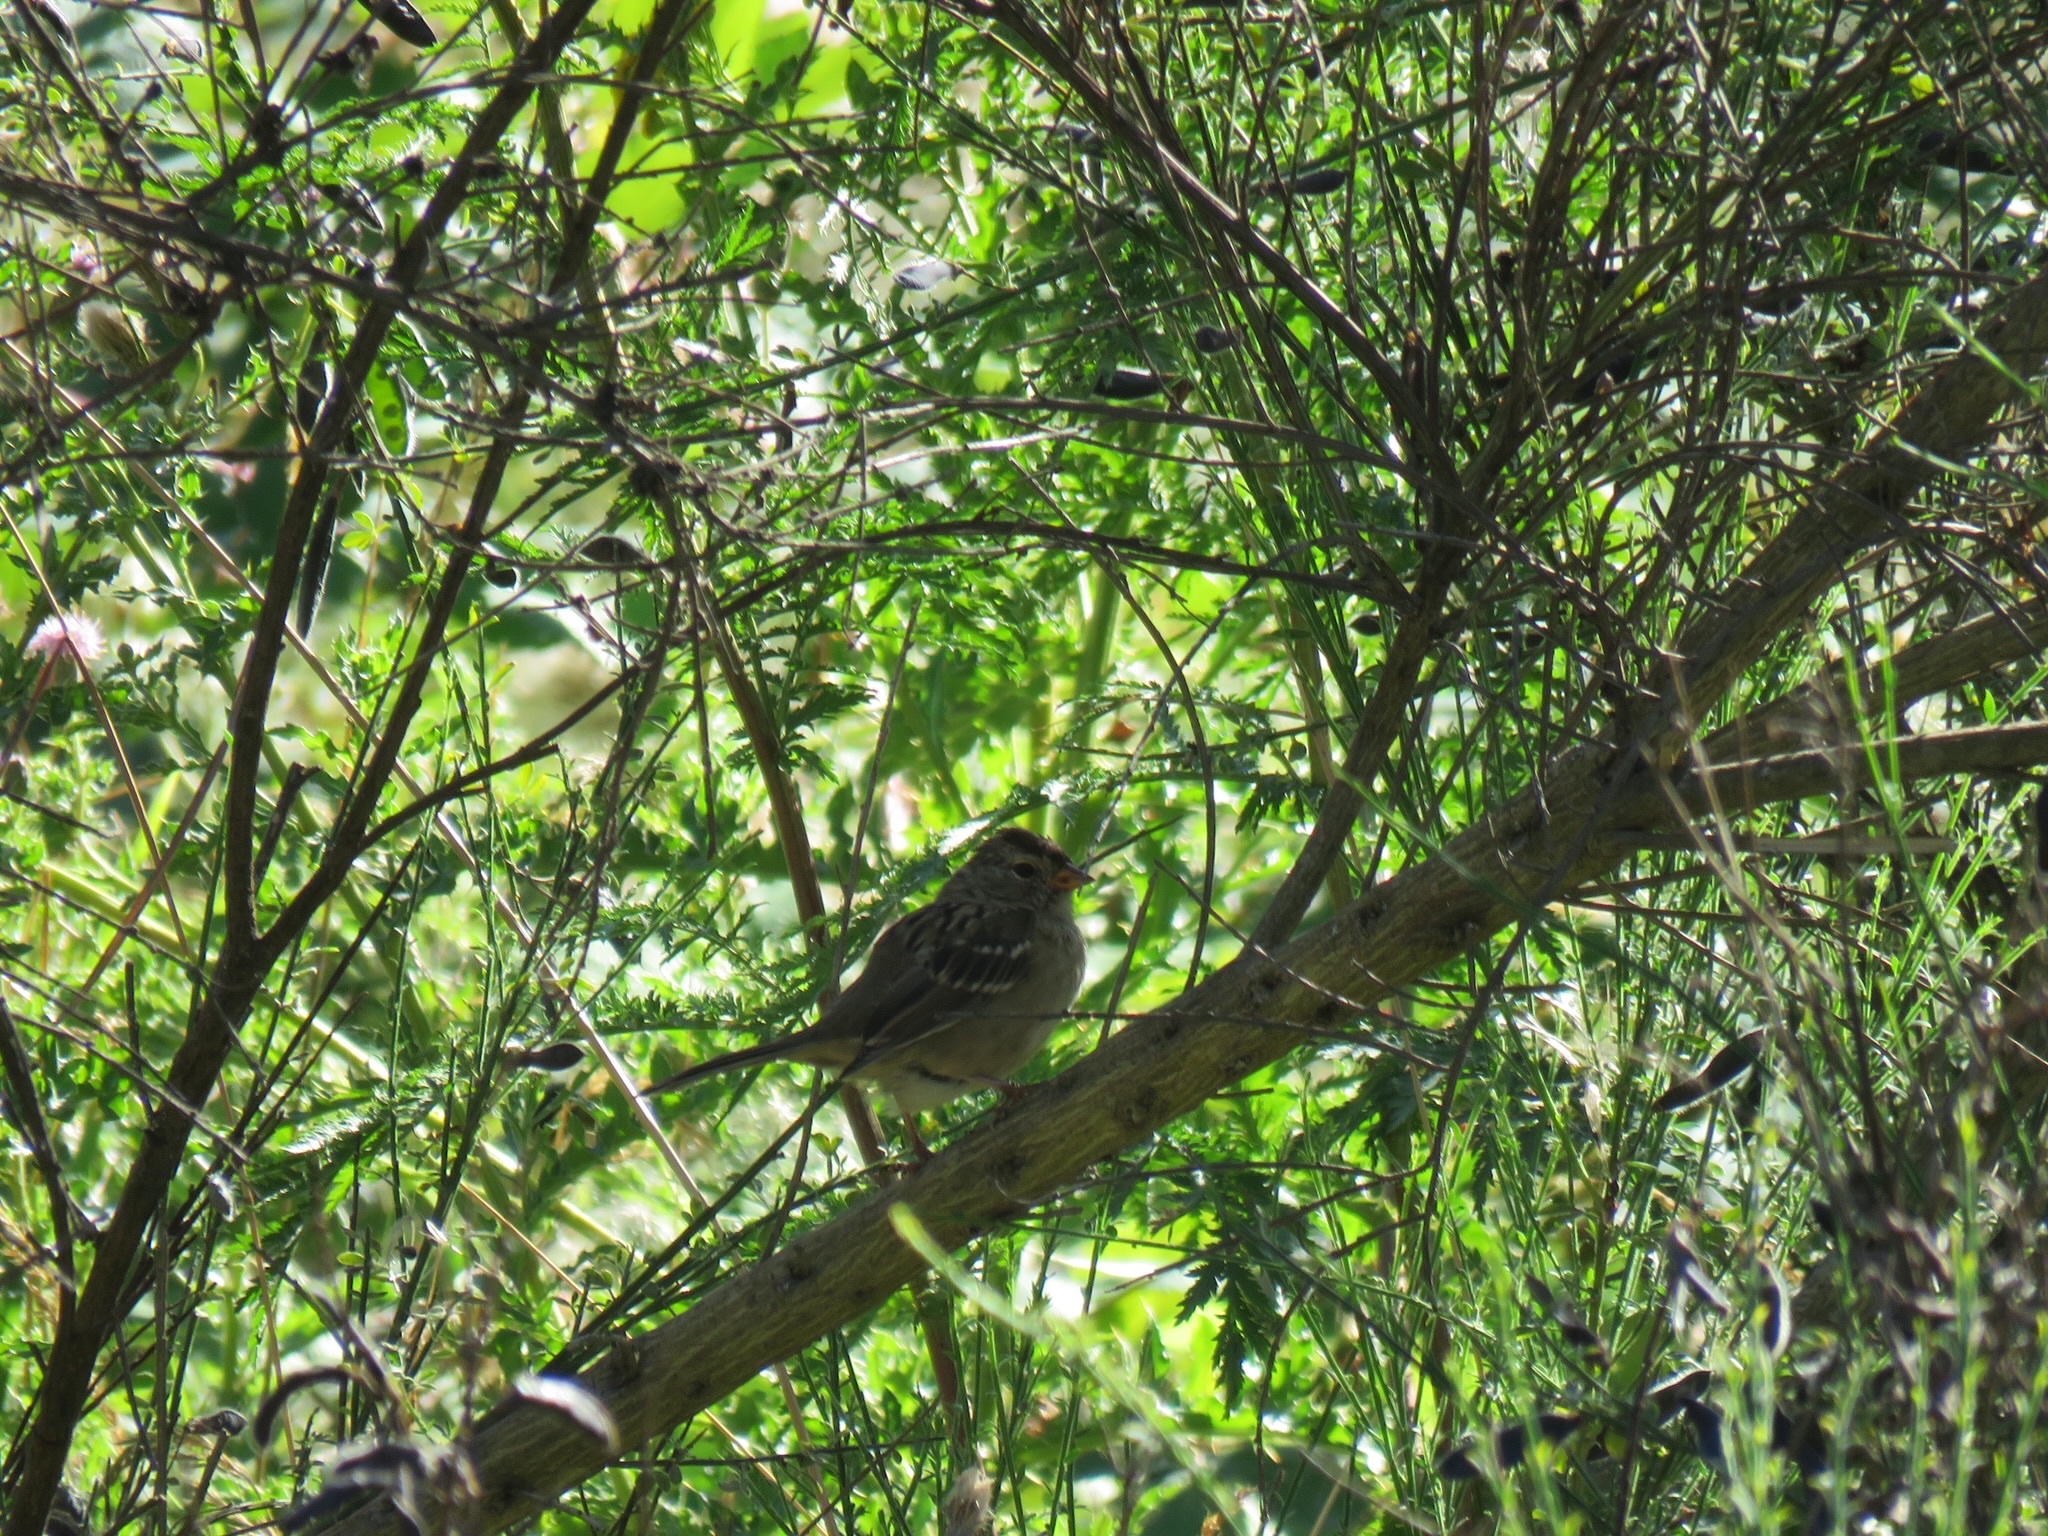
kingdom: Animalia
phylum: Chordata
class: Aves
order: Passeriformes
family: Passerellidae
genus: Zonotrichia
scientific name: Zonotrichia leucophrys
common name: White-crowned sparrow
